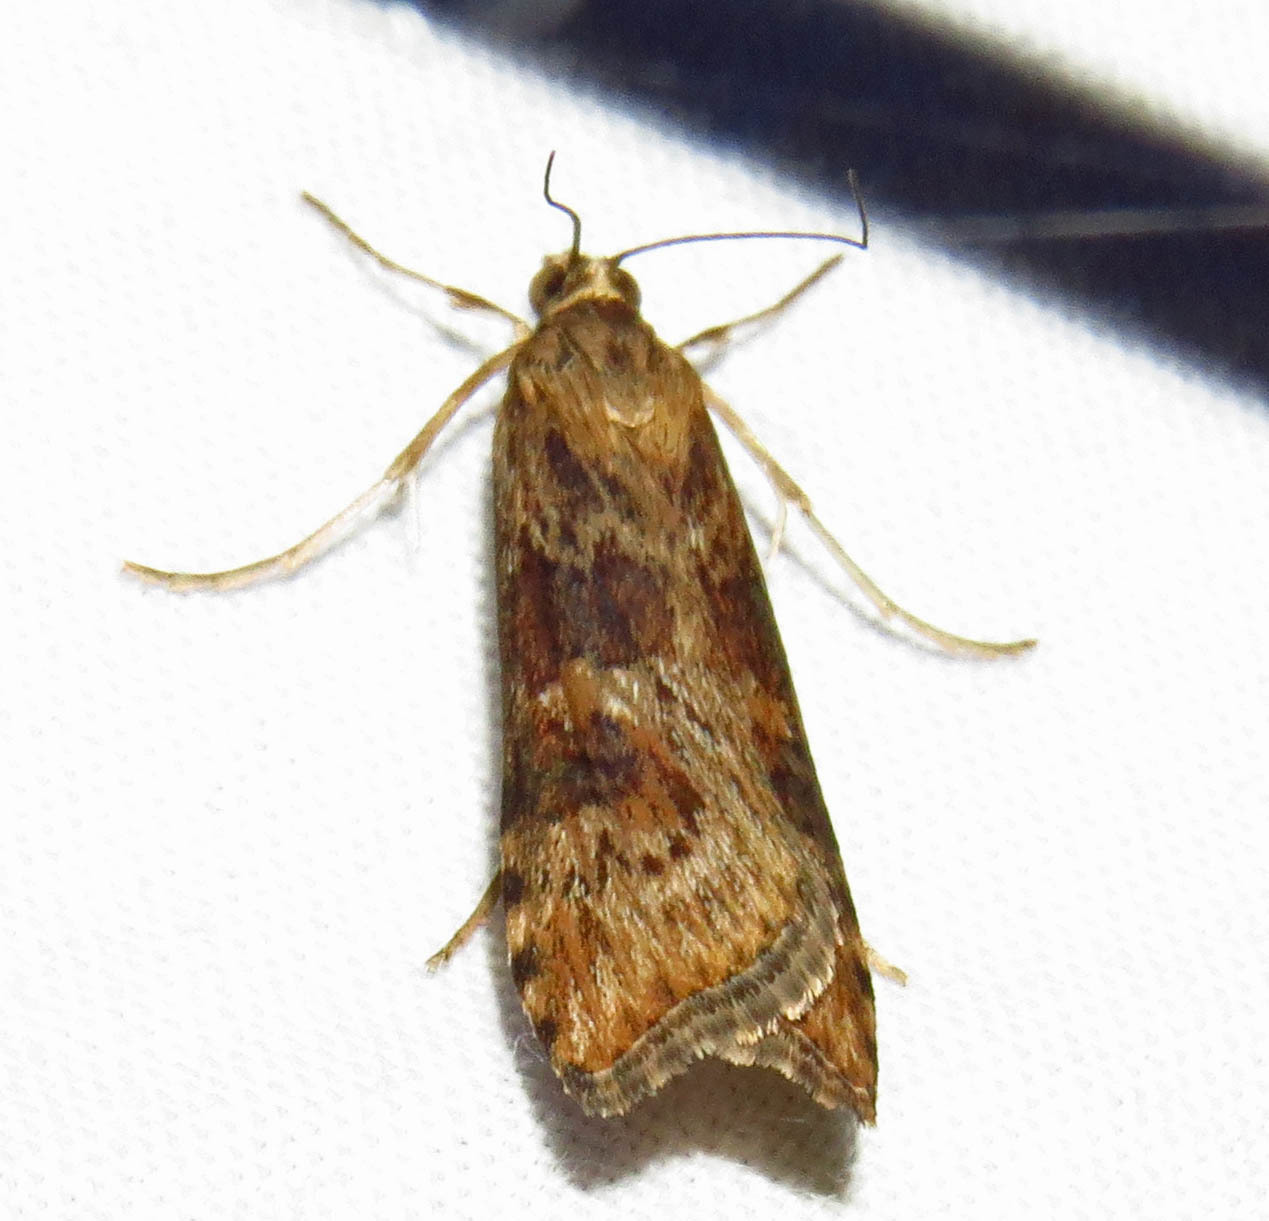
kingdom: Animalia
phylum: Arthropoda
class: Insecta
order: Lepidoptera
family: Crambidae
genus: Nomophila
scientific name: Nomophila nearctica
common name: American rush veneer
